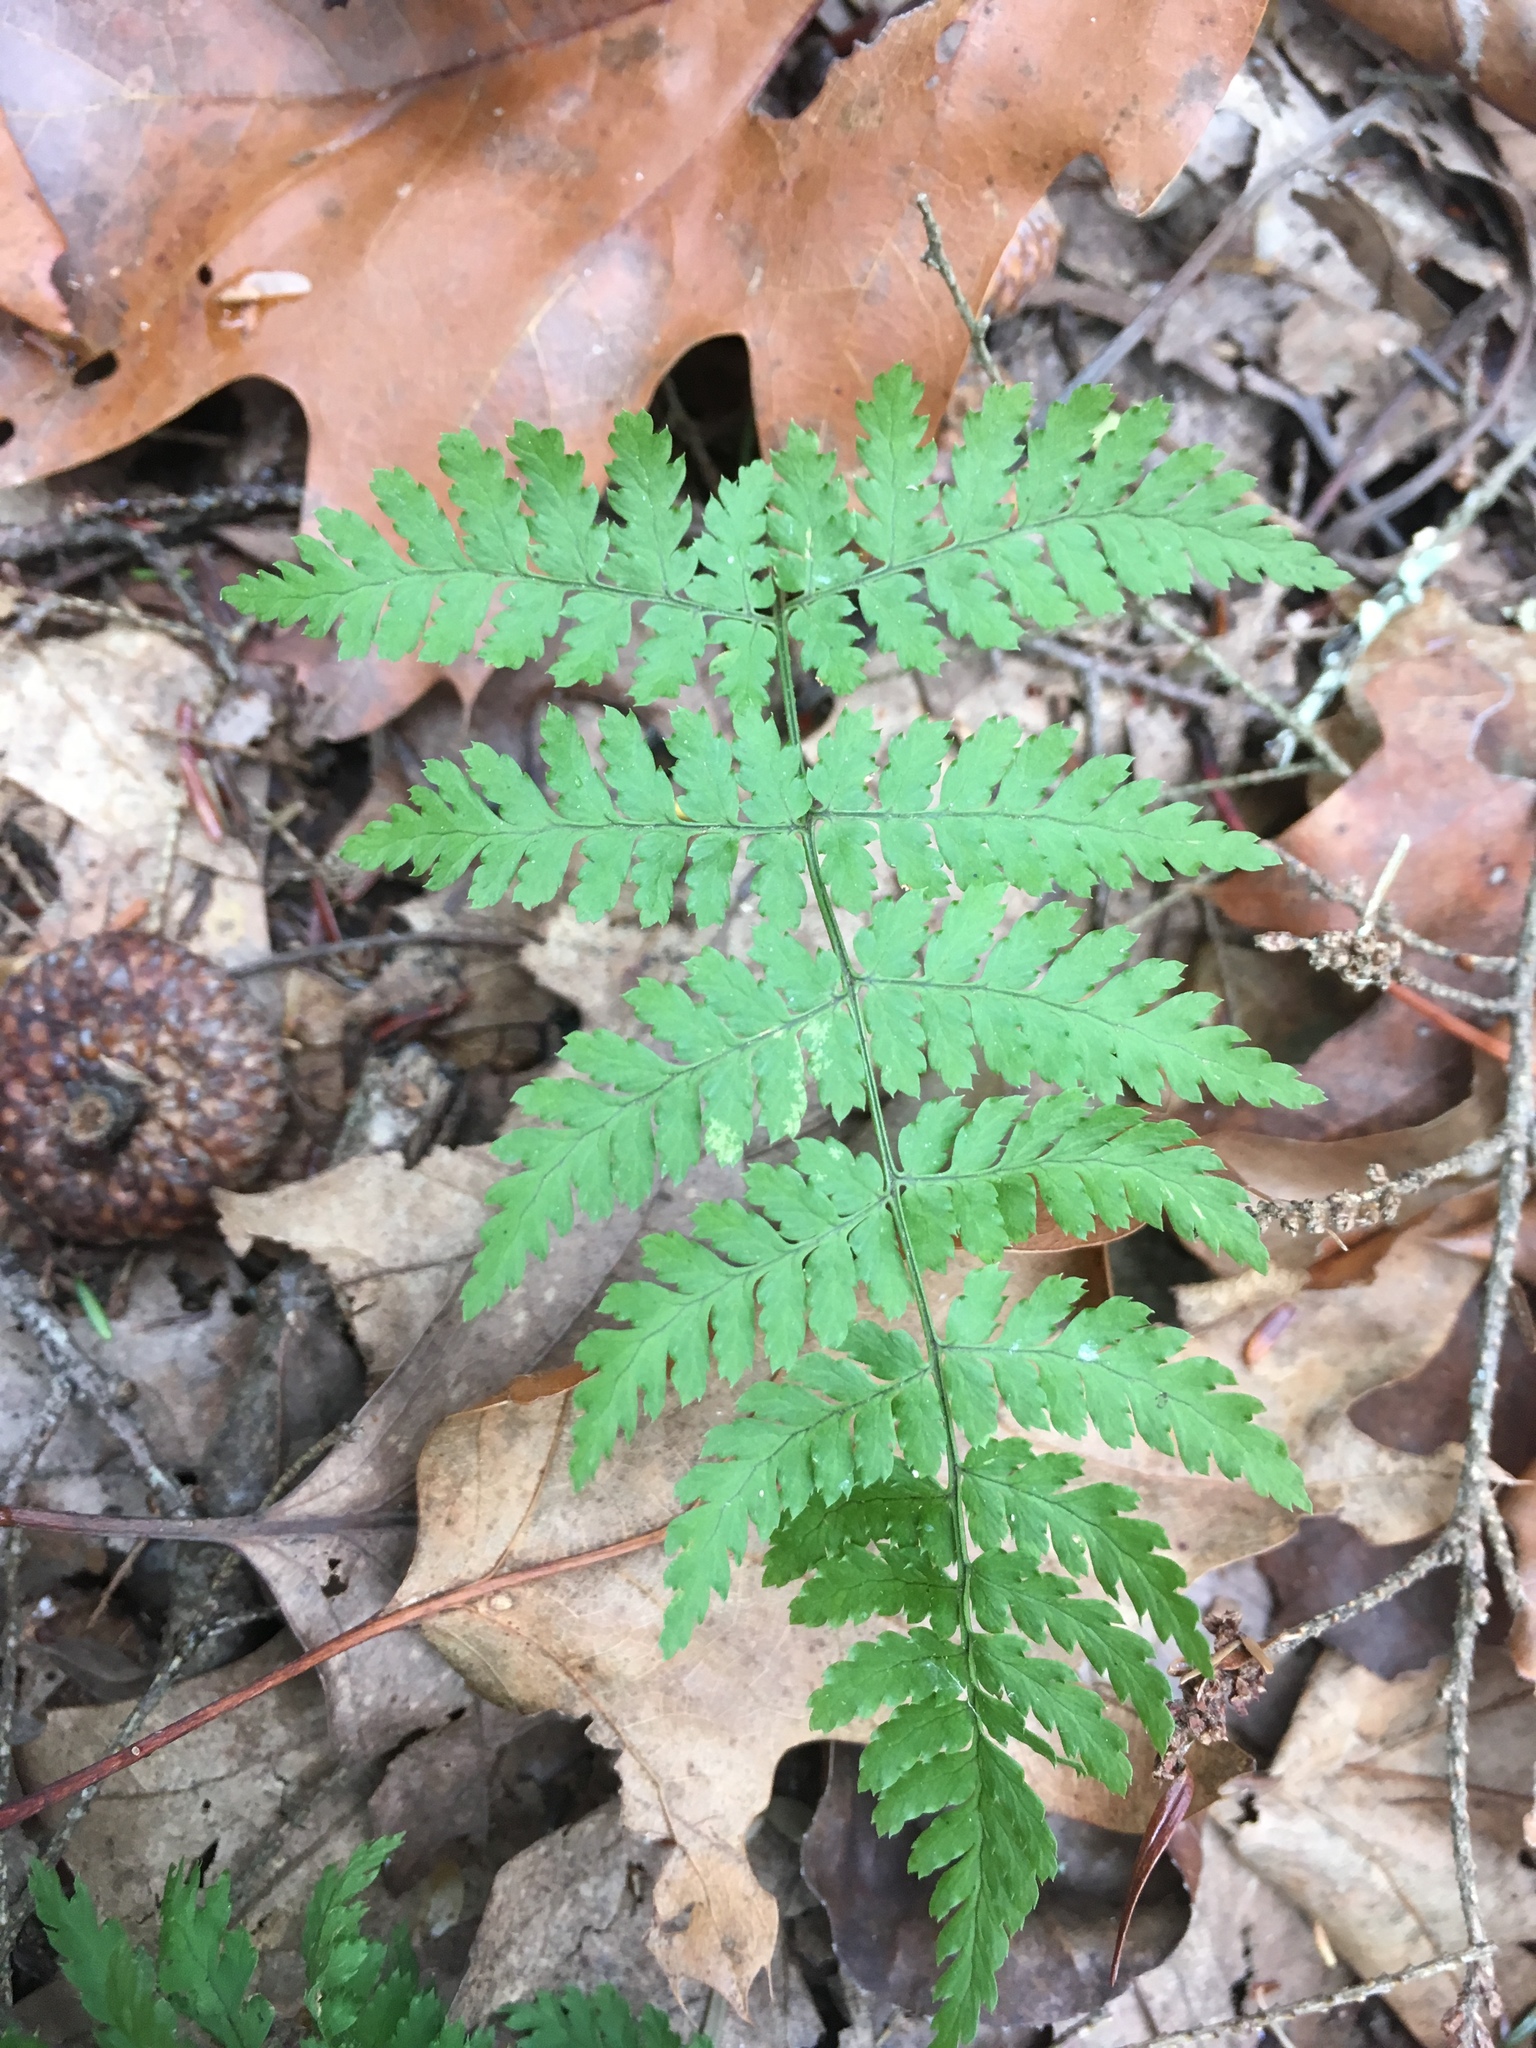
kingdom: Plantae
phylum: Tracheophyta
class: Polypodiopsida
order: Polypodiales
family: Dryopteridaceae
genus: Dryopteris
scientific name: Dryopteris intermedia
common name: Evergreen wood fern
